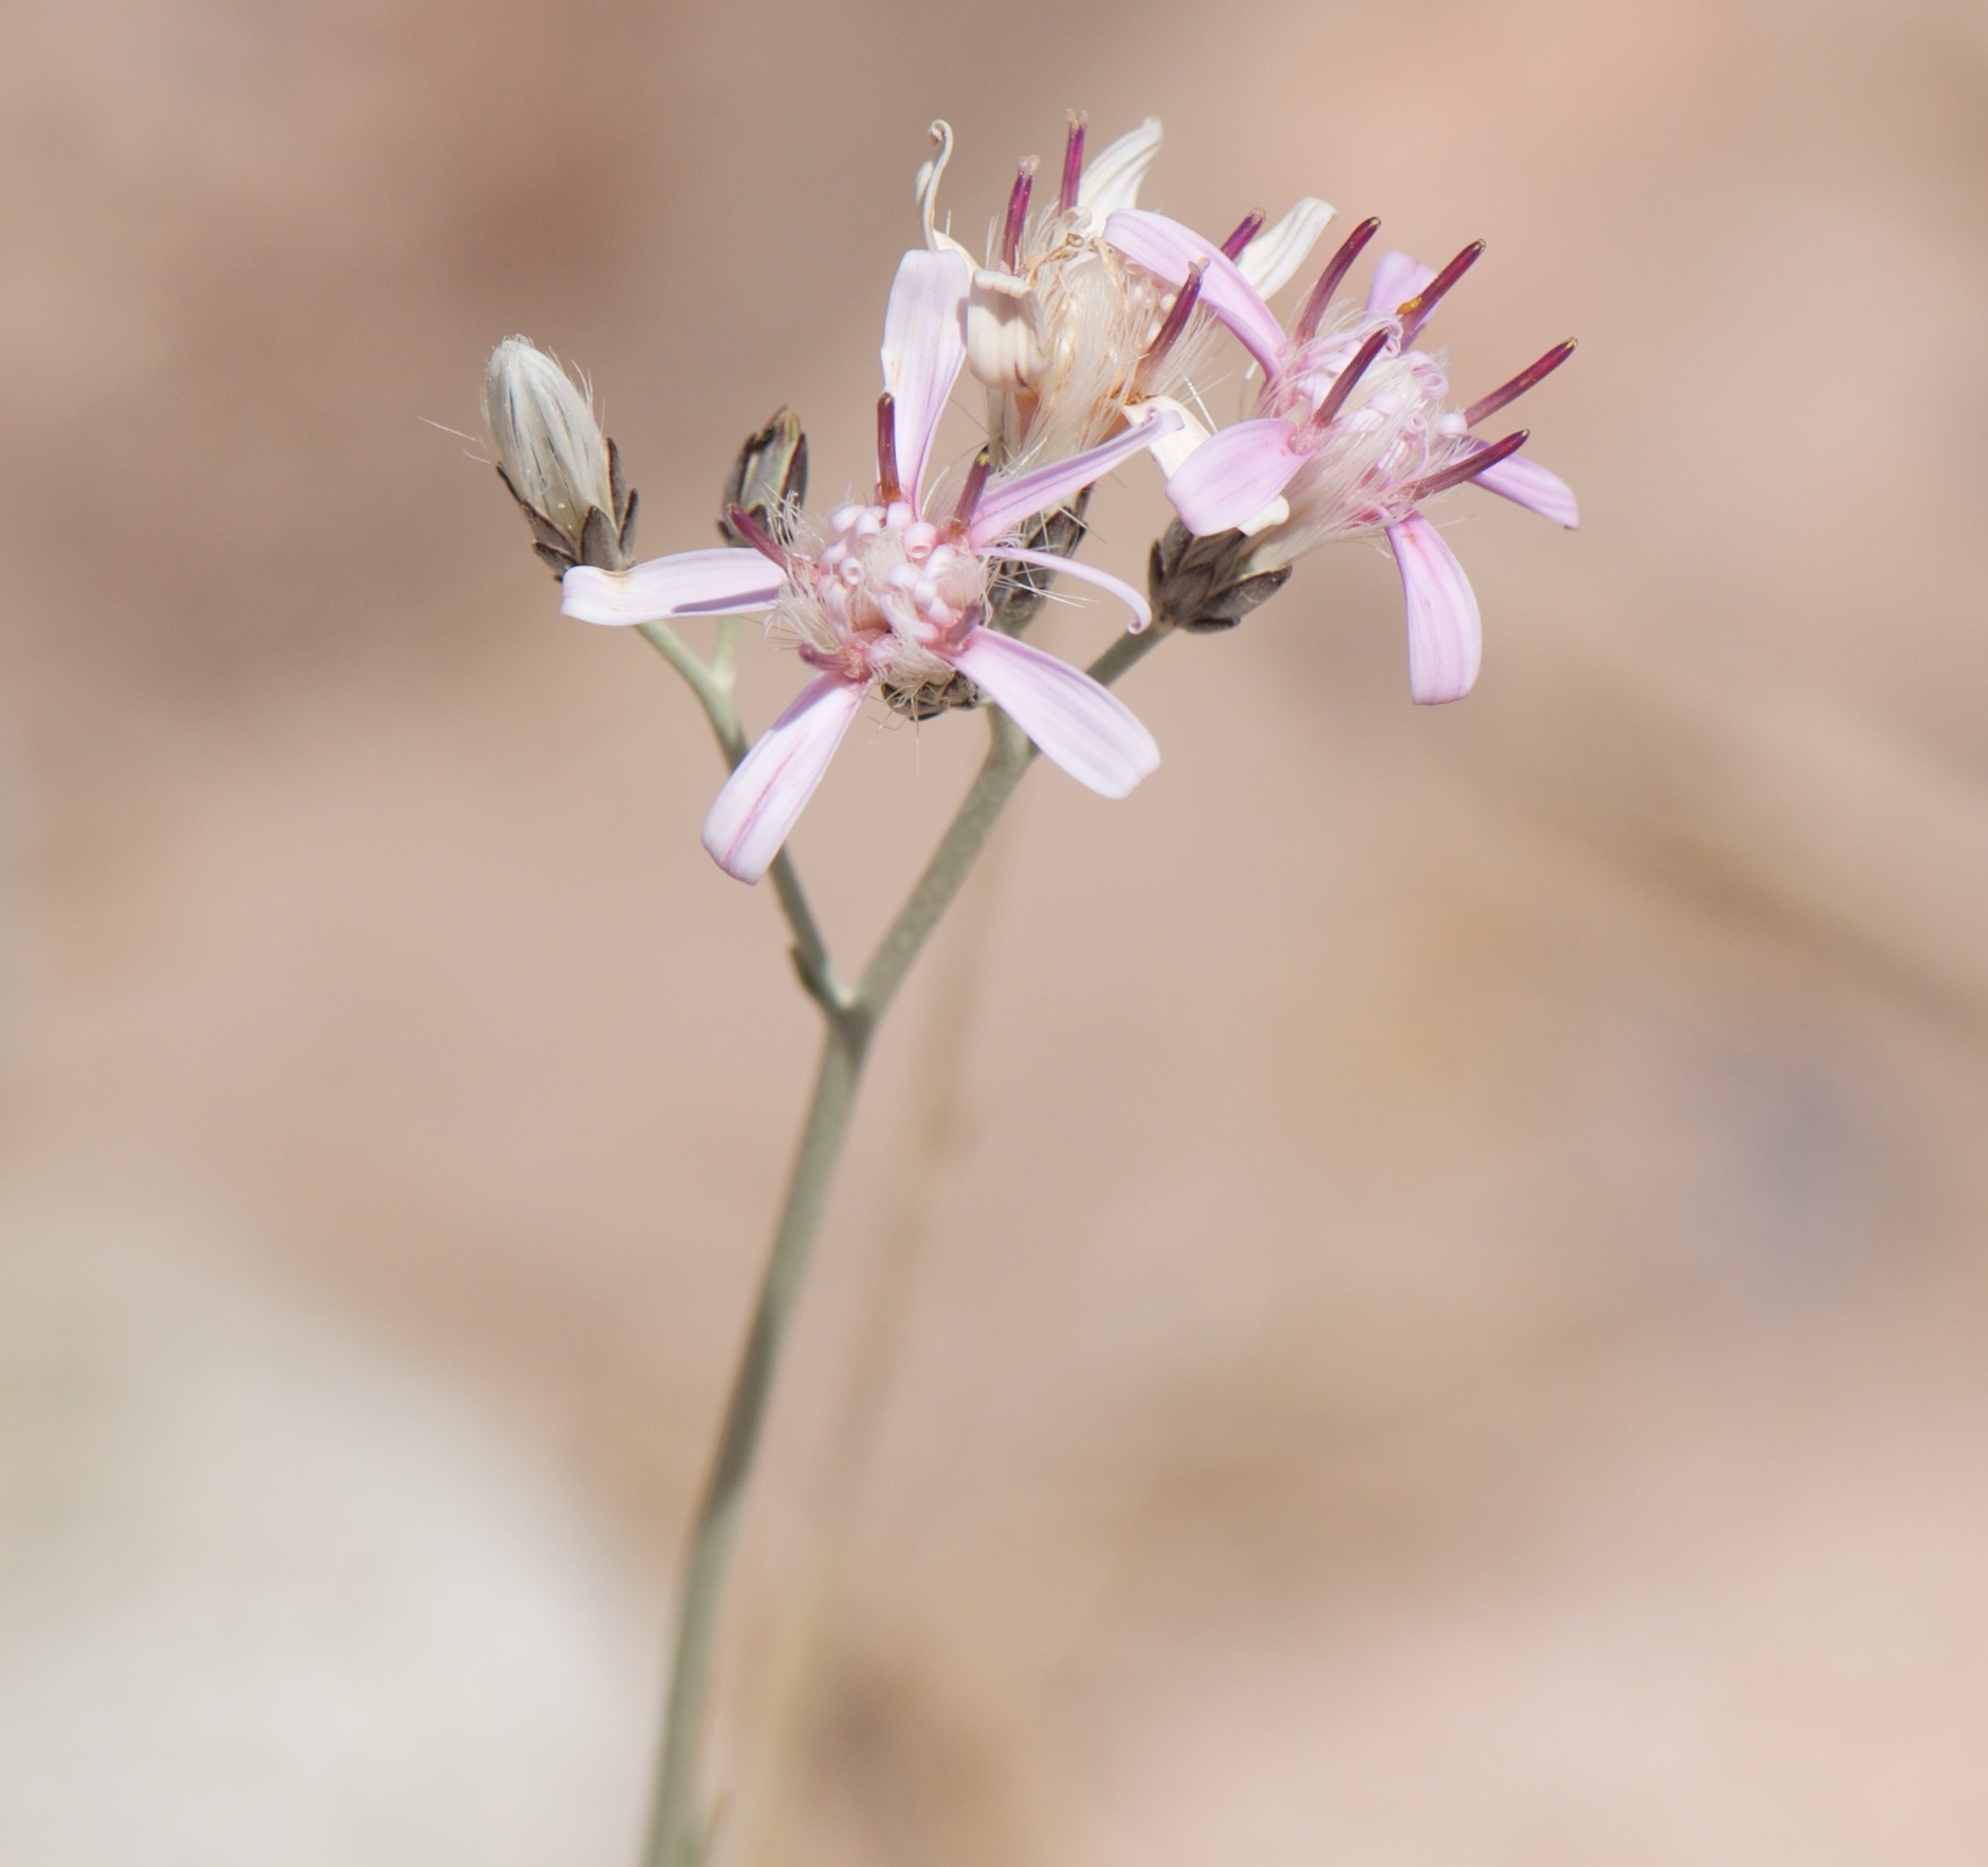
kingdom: Plantae
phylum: Tracheophyta
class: Magnoliopsida
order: Asterales
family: Asteraceae
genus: Hyalis
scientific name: Hyalis argentea
